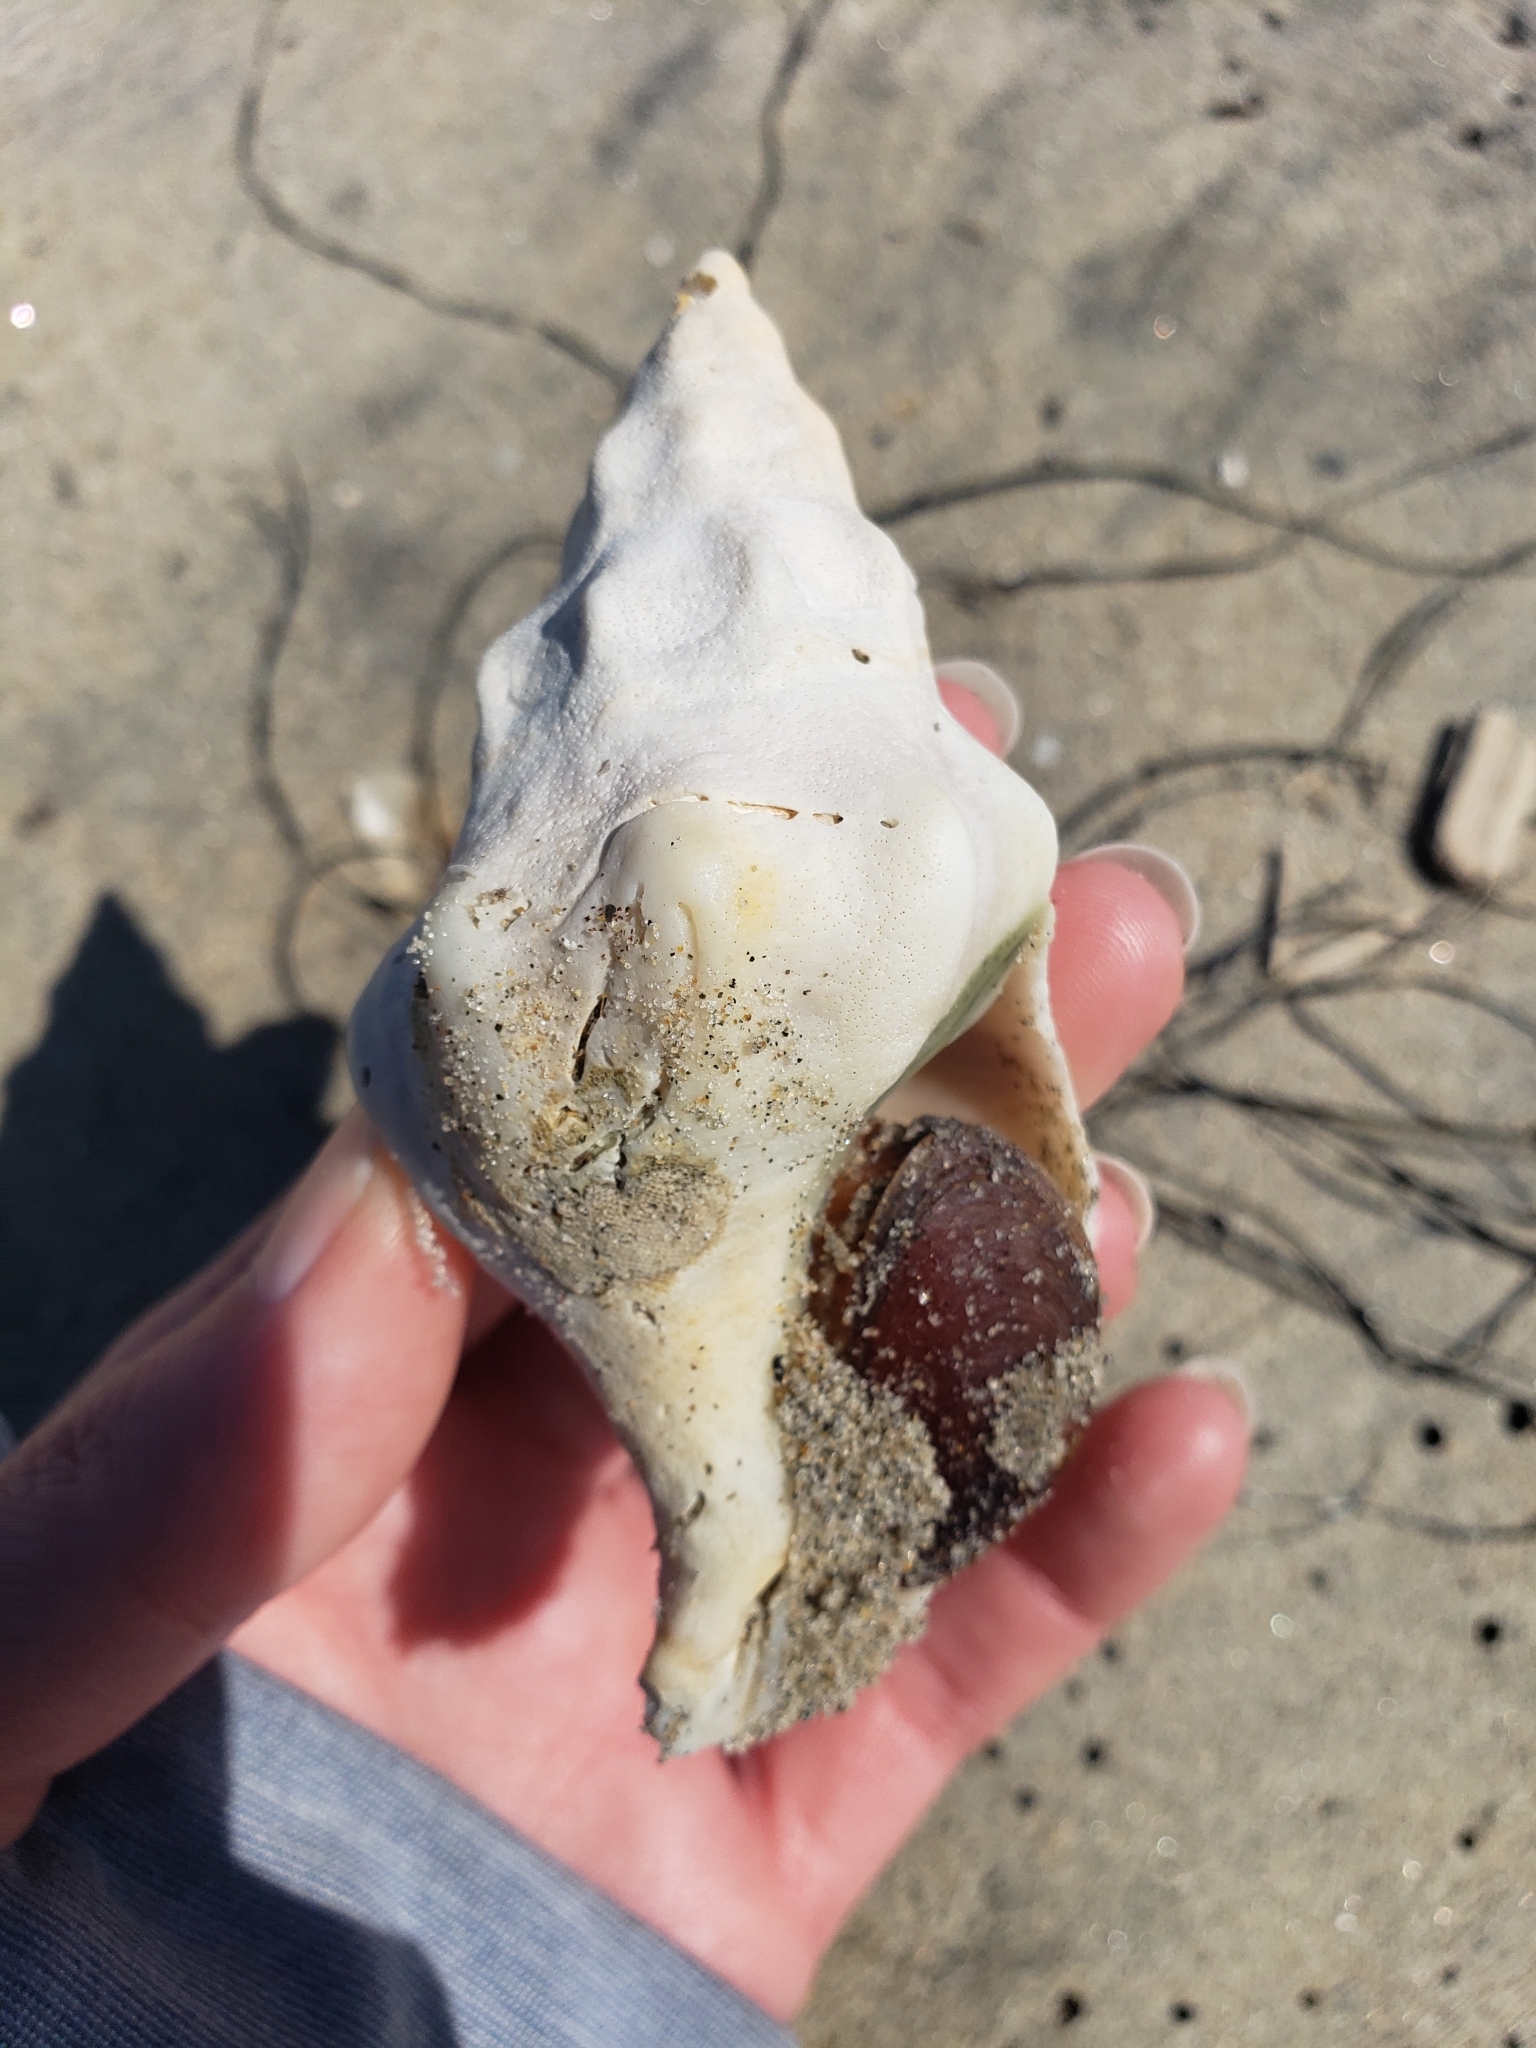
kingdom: Animalia
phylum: Mollusca
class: Gastropoda
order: Neogastropoda
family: Austrosiphonidae
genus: Kelletia
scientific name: Kelletia kelletii
